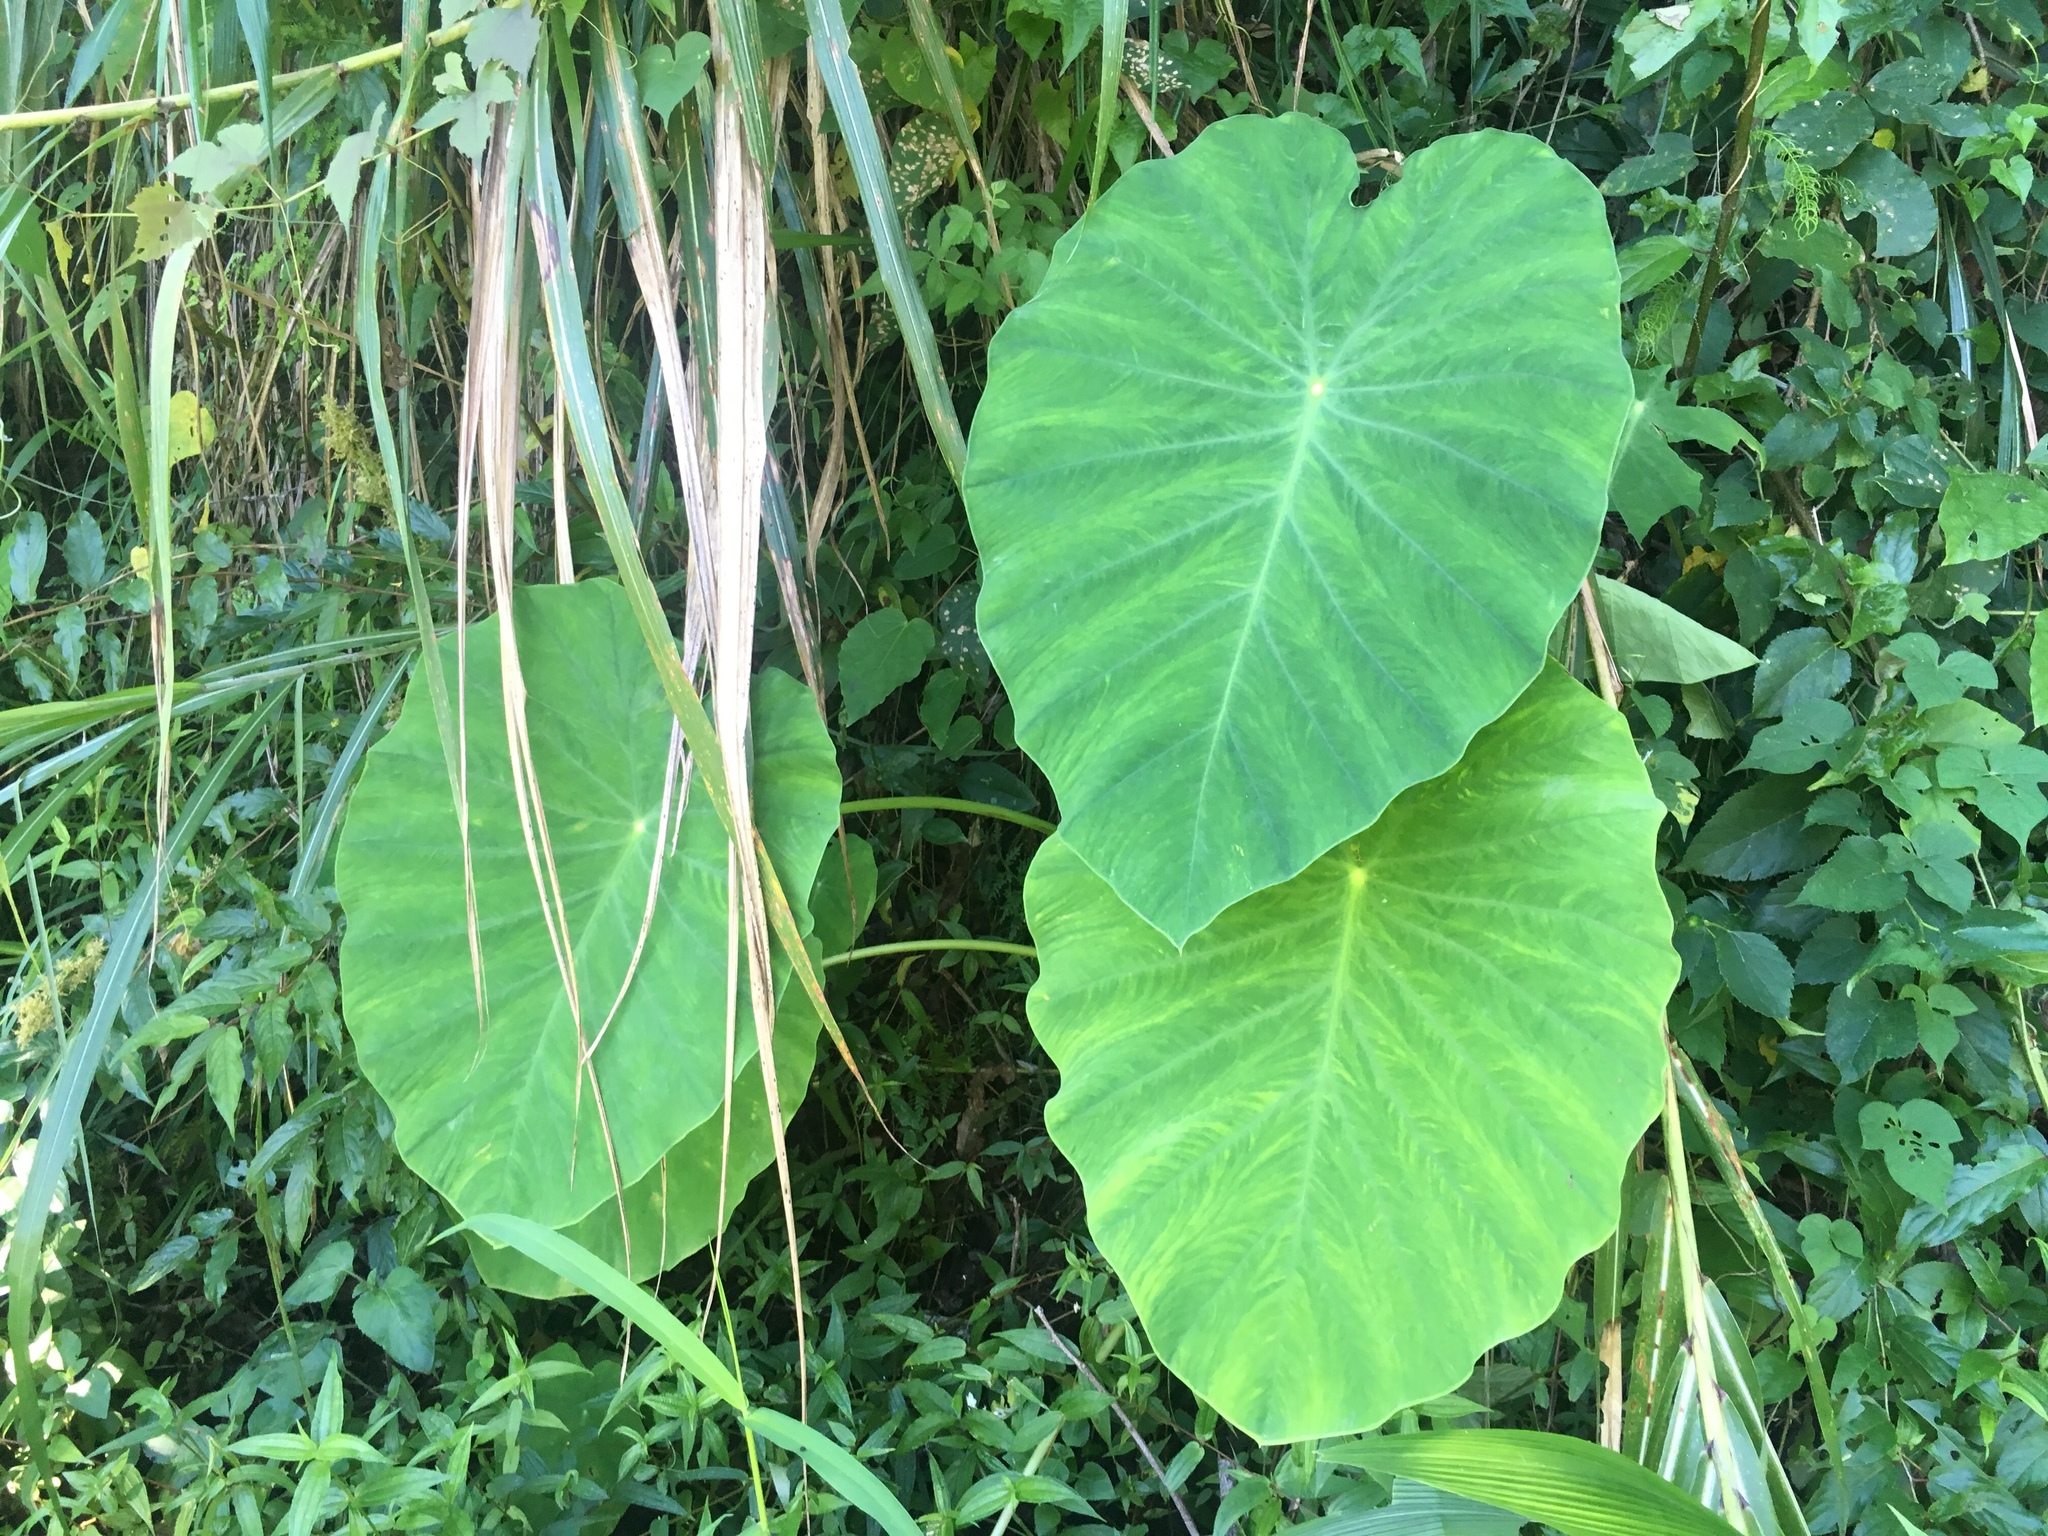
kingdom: Plantae
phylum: Tracheophyta
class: Liliopsida
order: Alismatales
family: Araceae
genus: Colocasia
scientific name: Colocasia esculenta
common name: Taro
